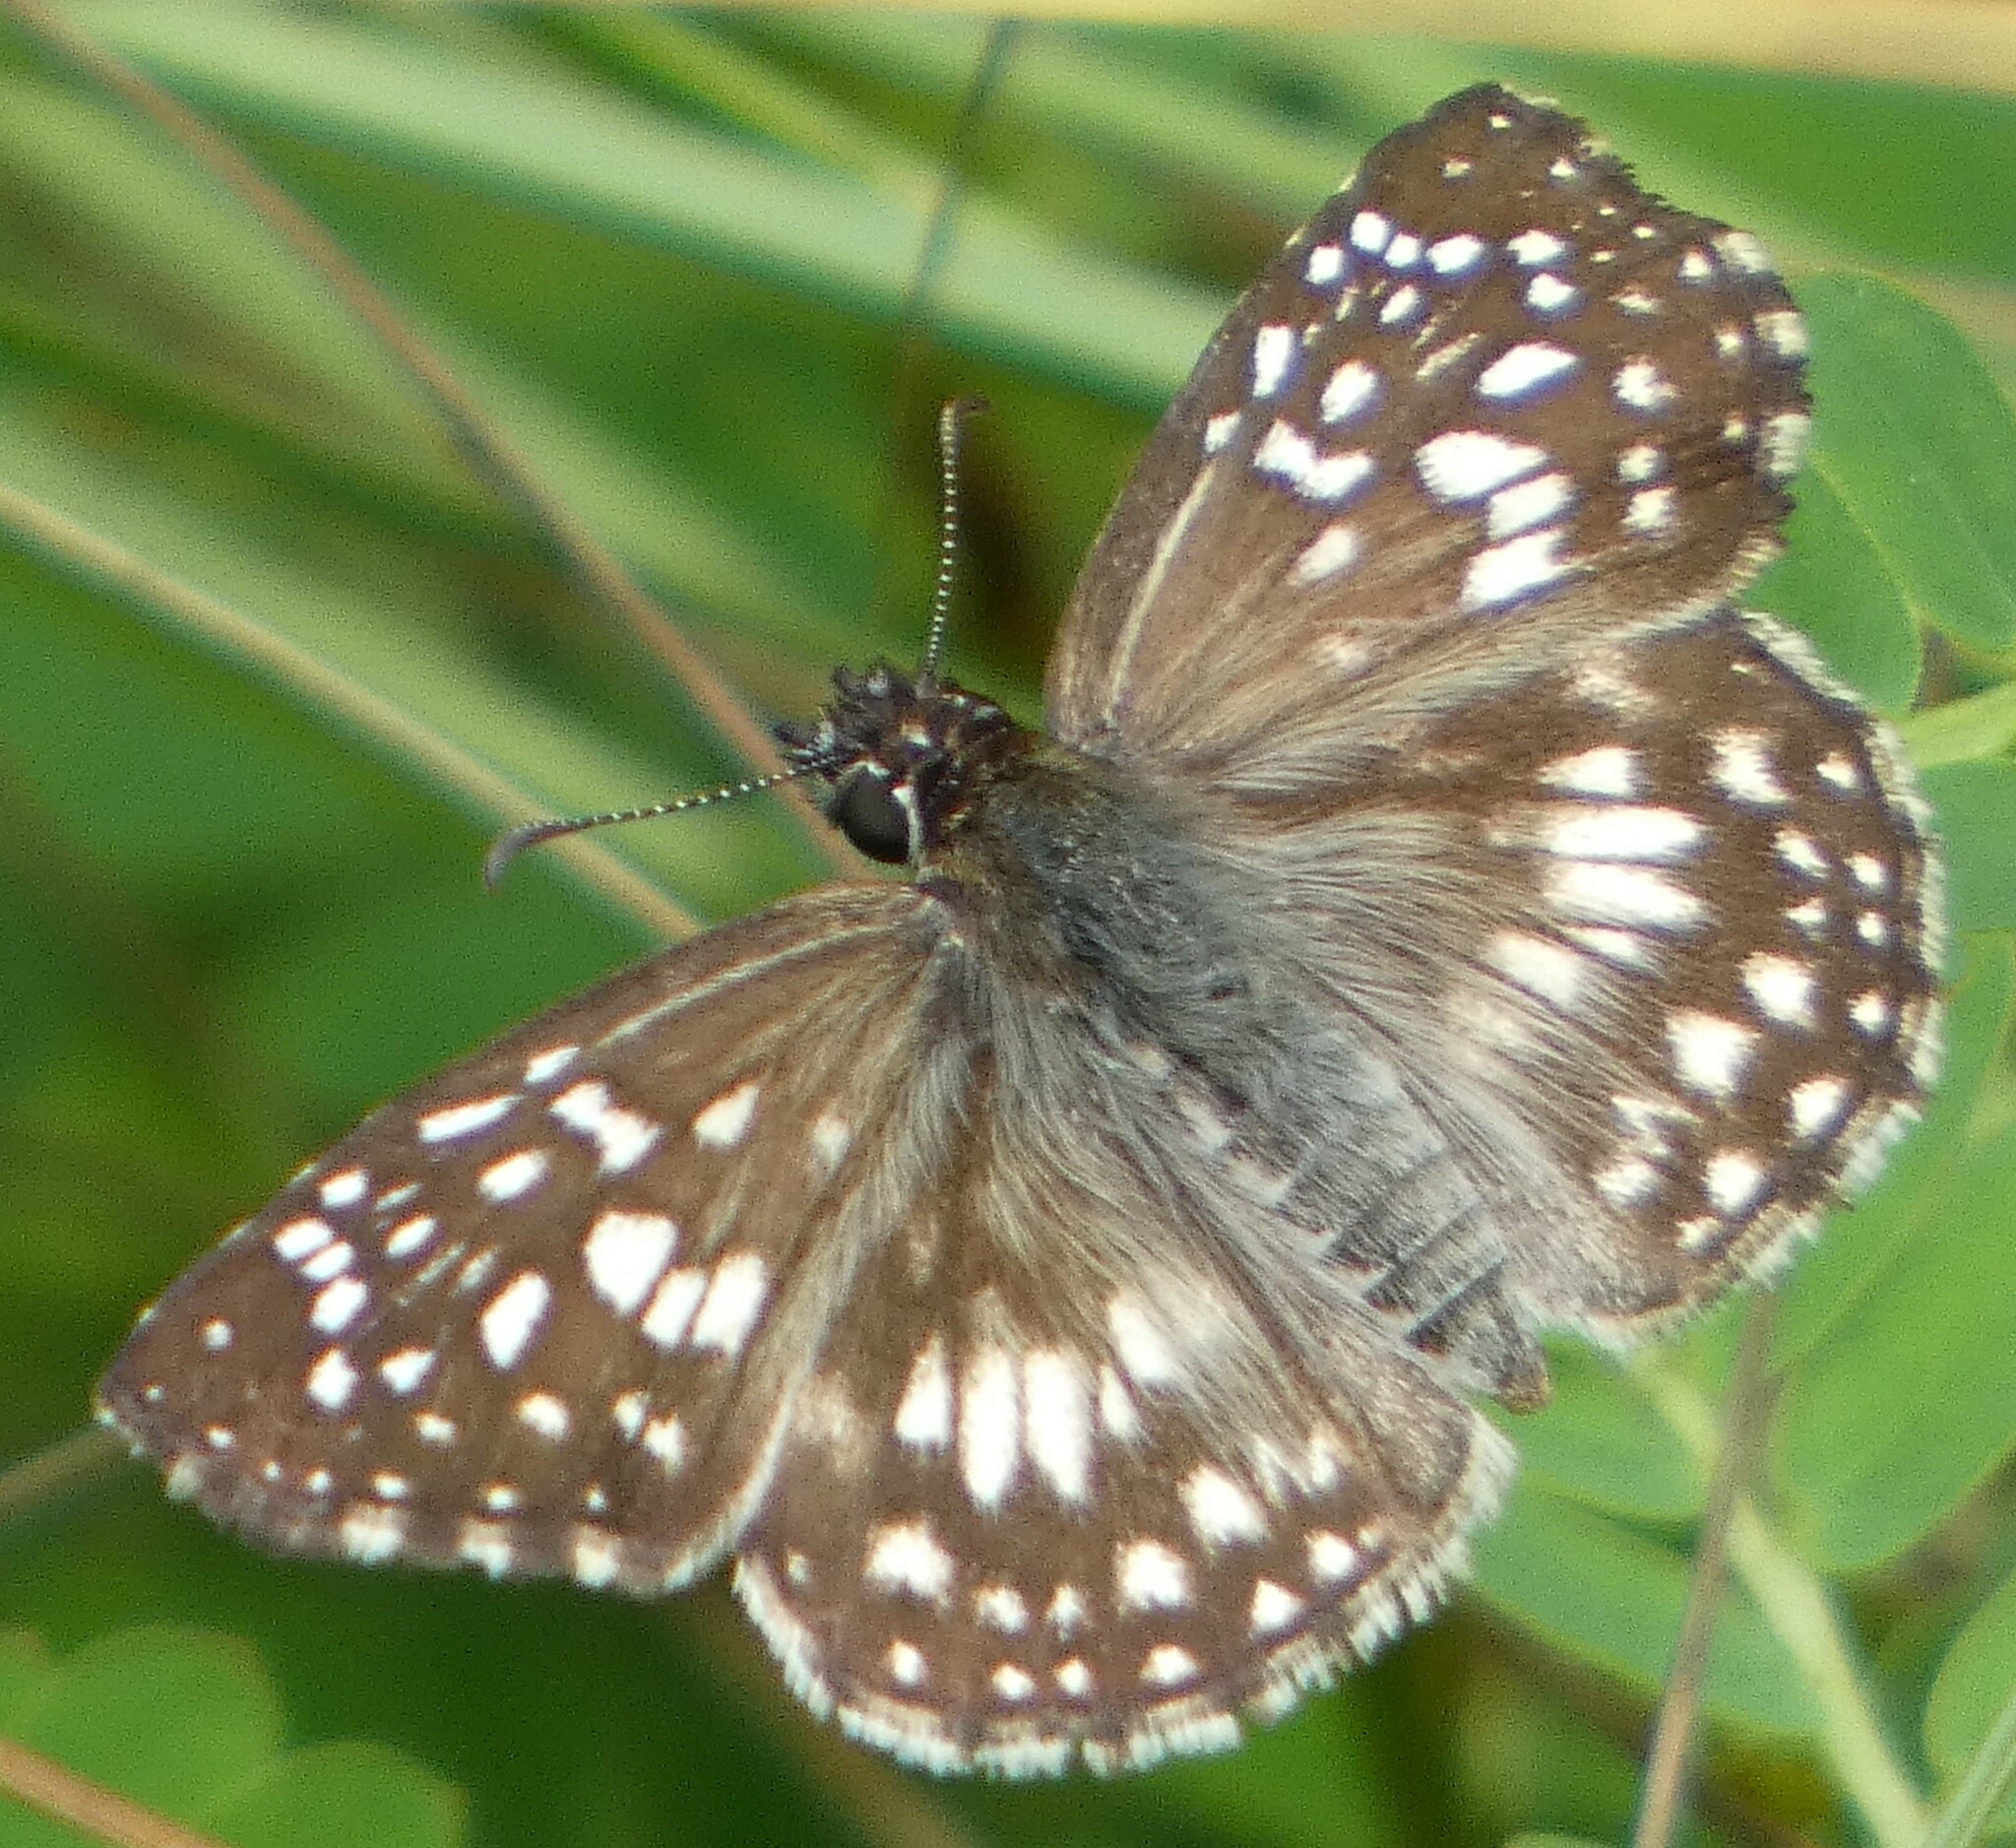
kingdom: Animalia
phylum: Arthropoda
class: Insecta
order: Lepidoptera
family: Hesperiidae
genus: Pyrgus
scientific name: Pyrgus oileus
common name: Tropical checkered-skipper
